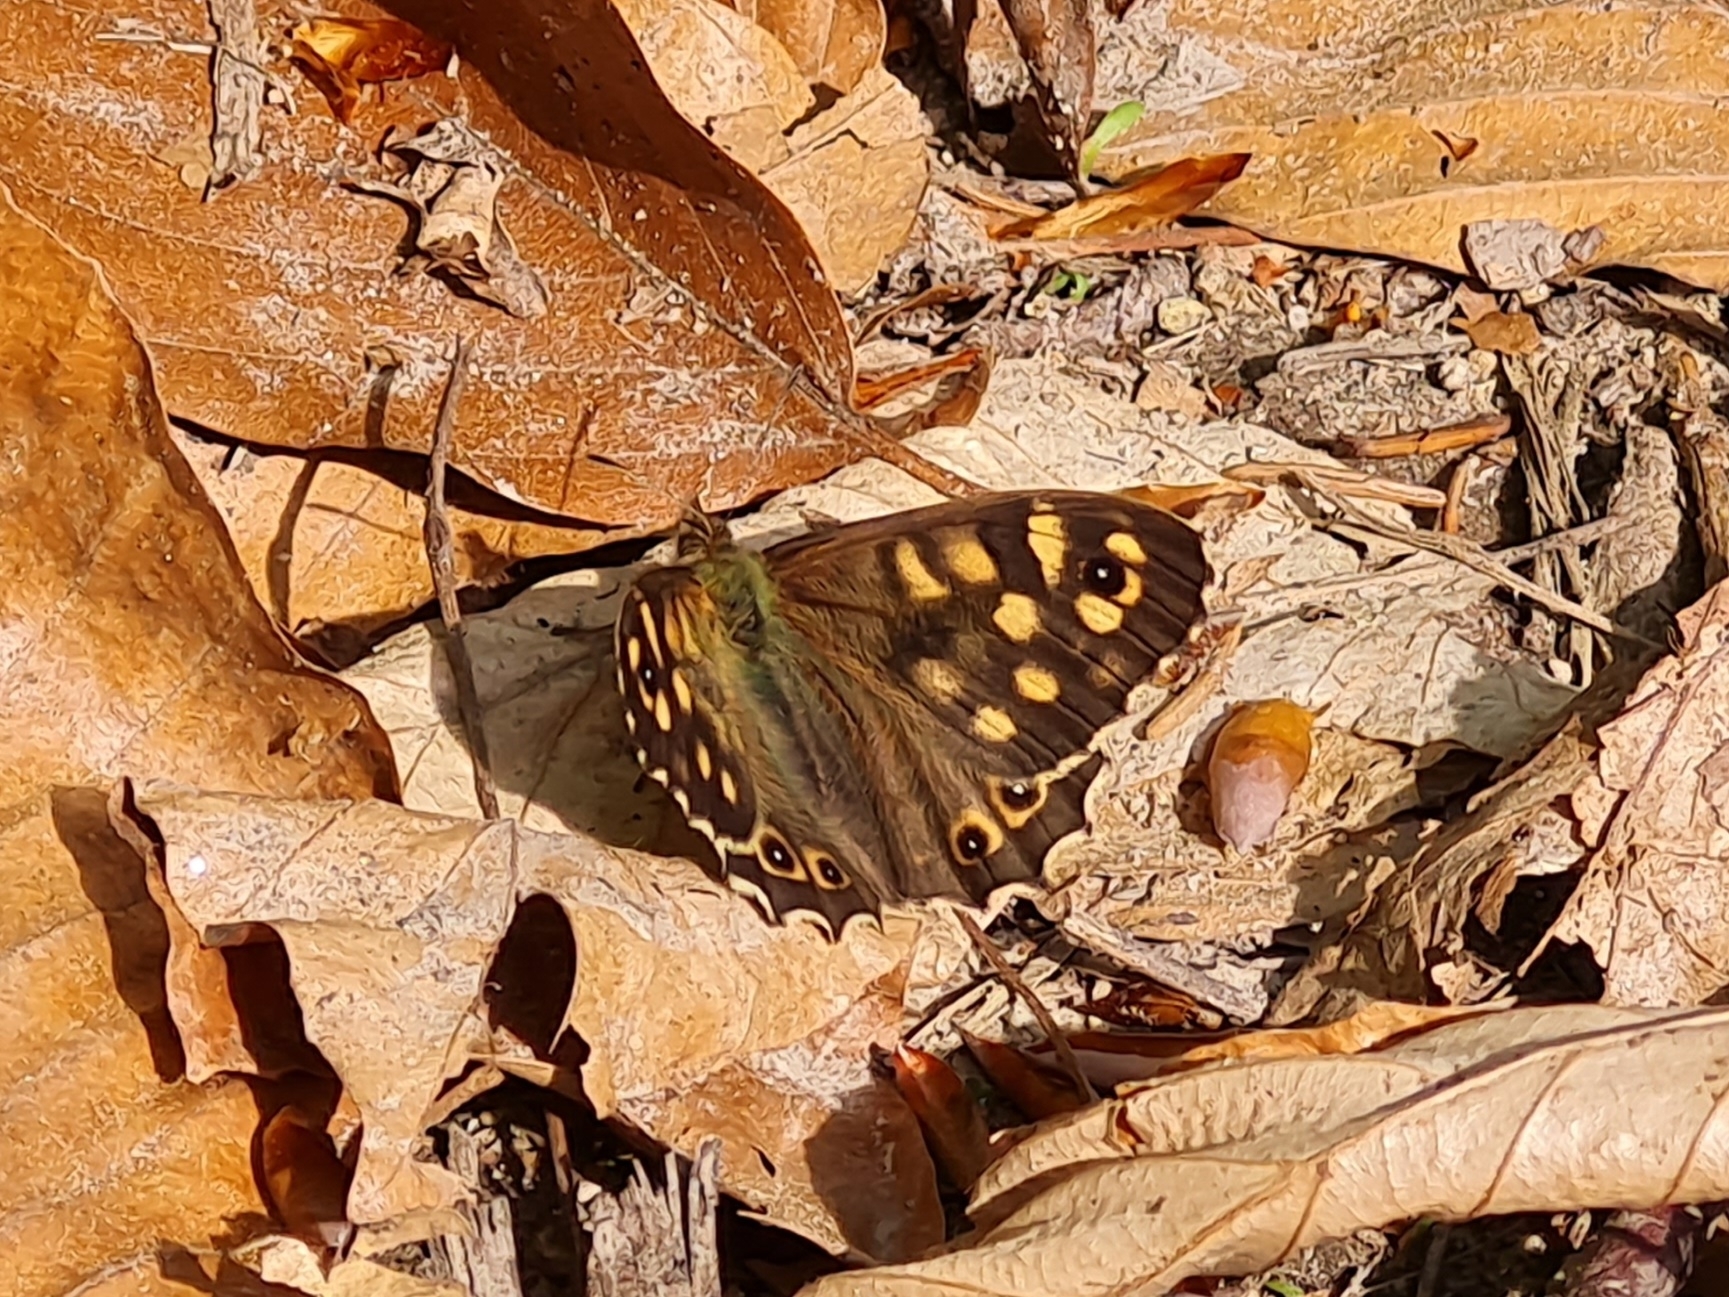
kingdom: Animalia
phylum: Arthropoda
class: Insecta
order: Lepidoptera
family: Nymphalidae
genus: Pararge
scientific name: Pararge aegeria
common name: Speckled wood
